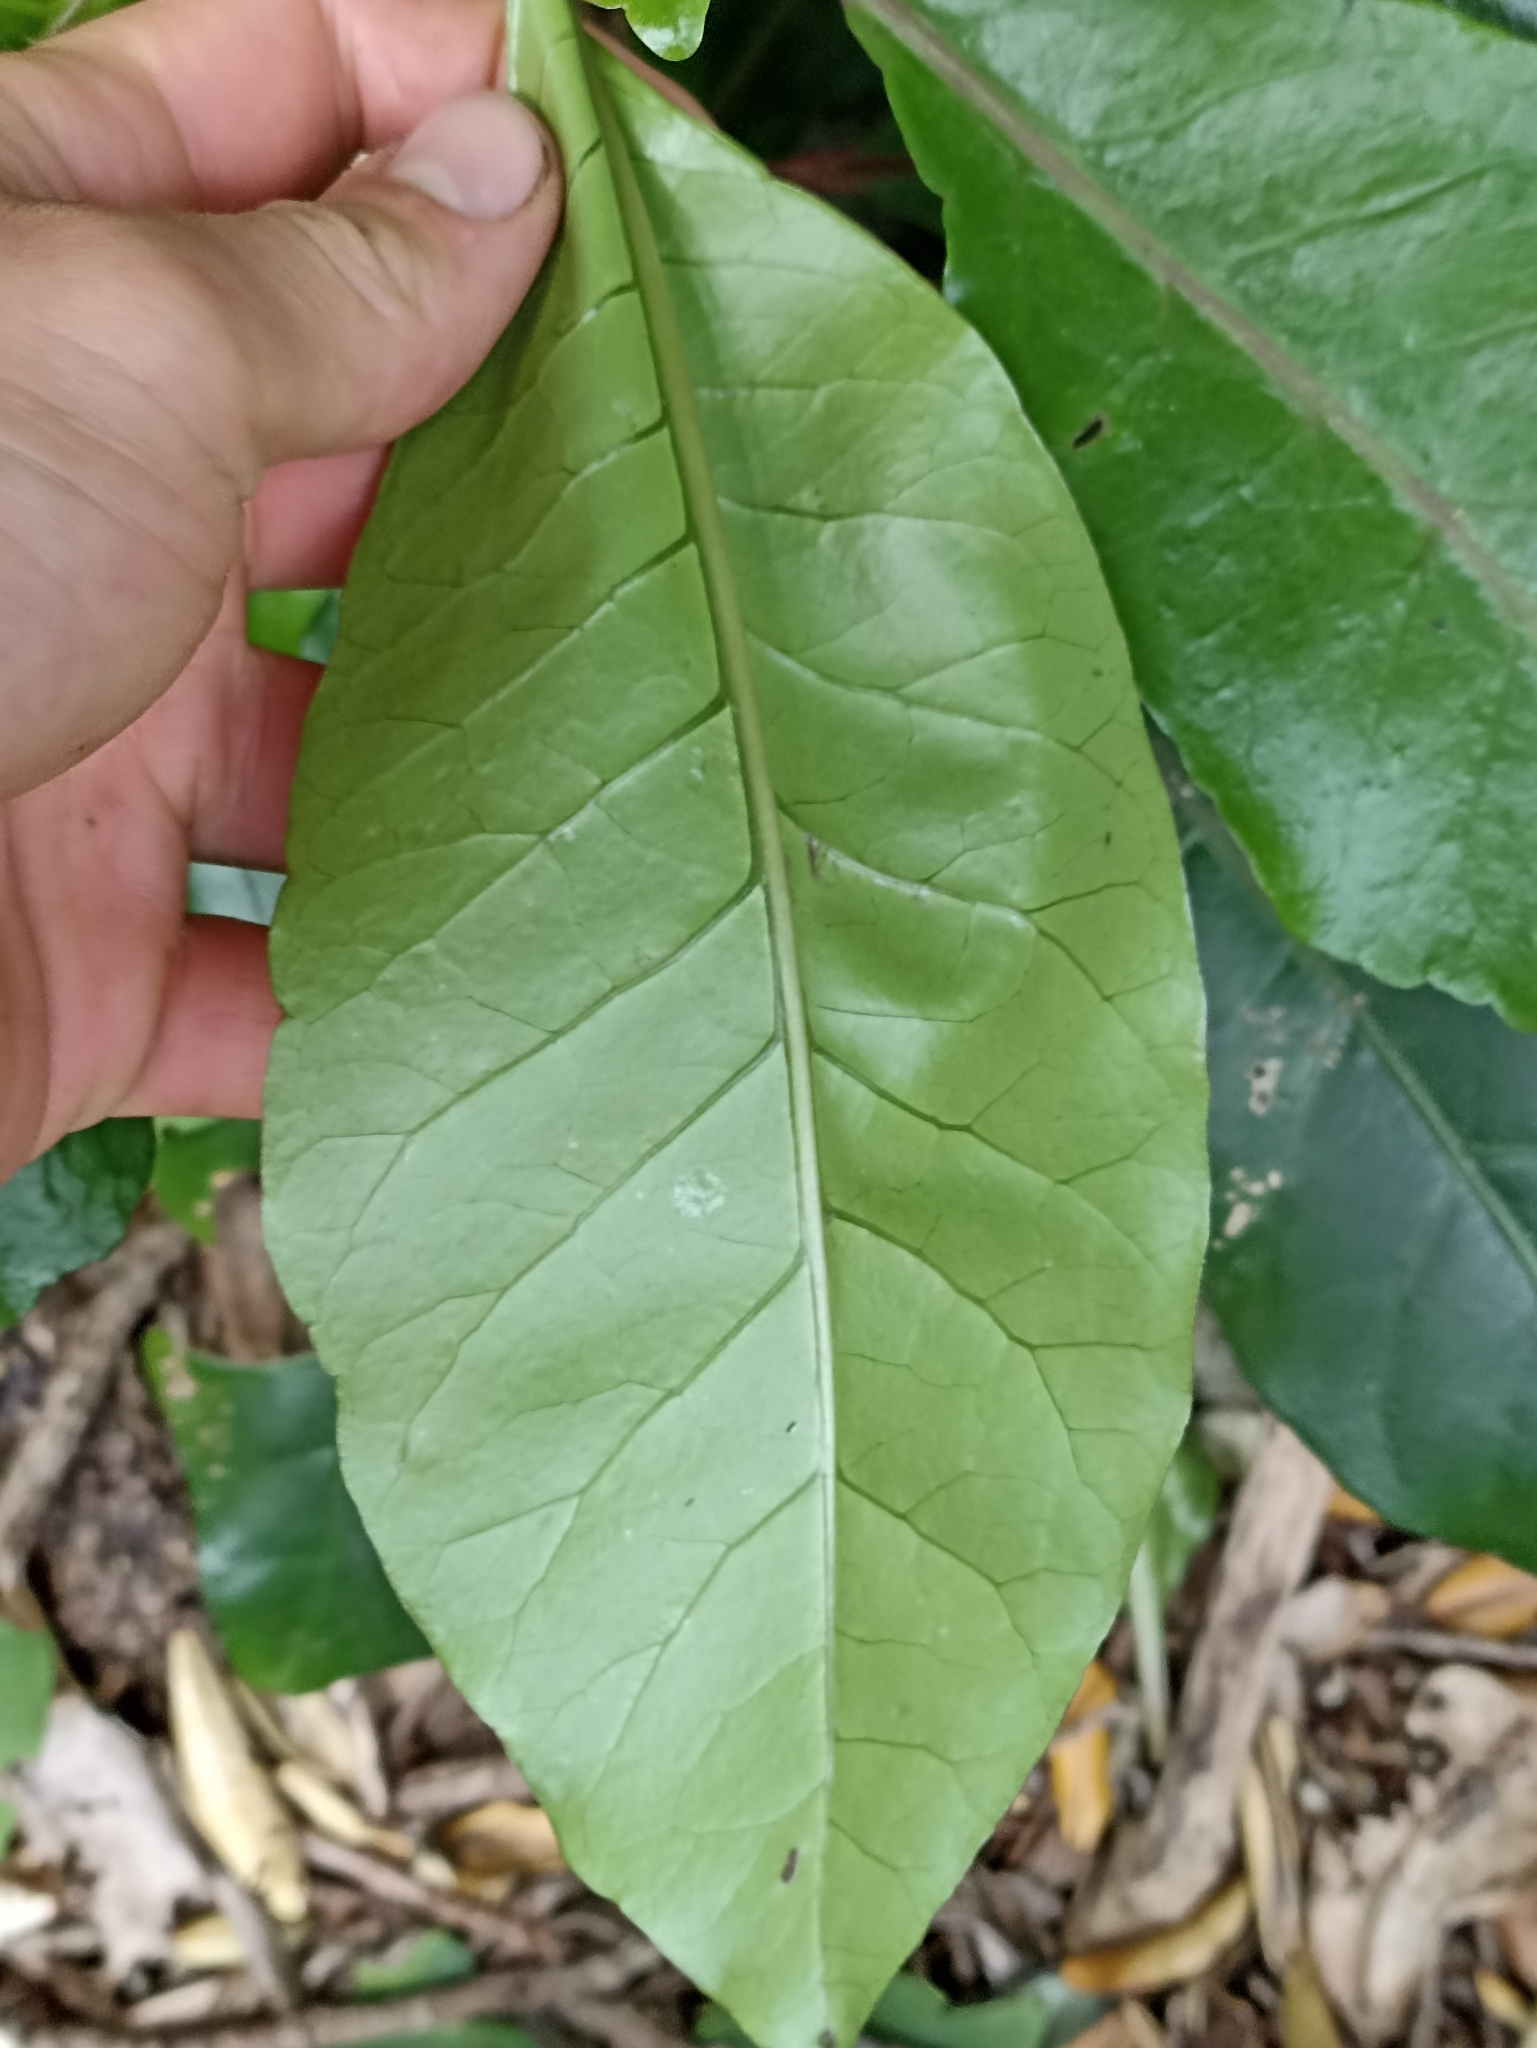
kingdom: Plantae
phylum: Tracheophyta
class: Magnoliopsida
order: Caryophyllales
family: Nyctaginaceae
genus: Ceodes
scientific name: Ceodes brunoniana
